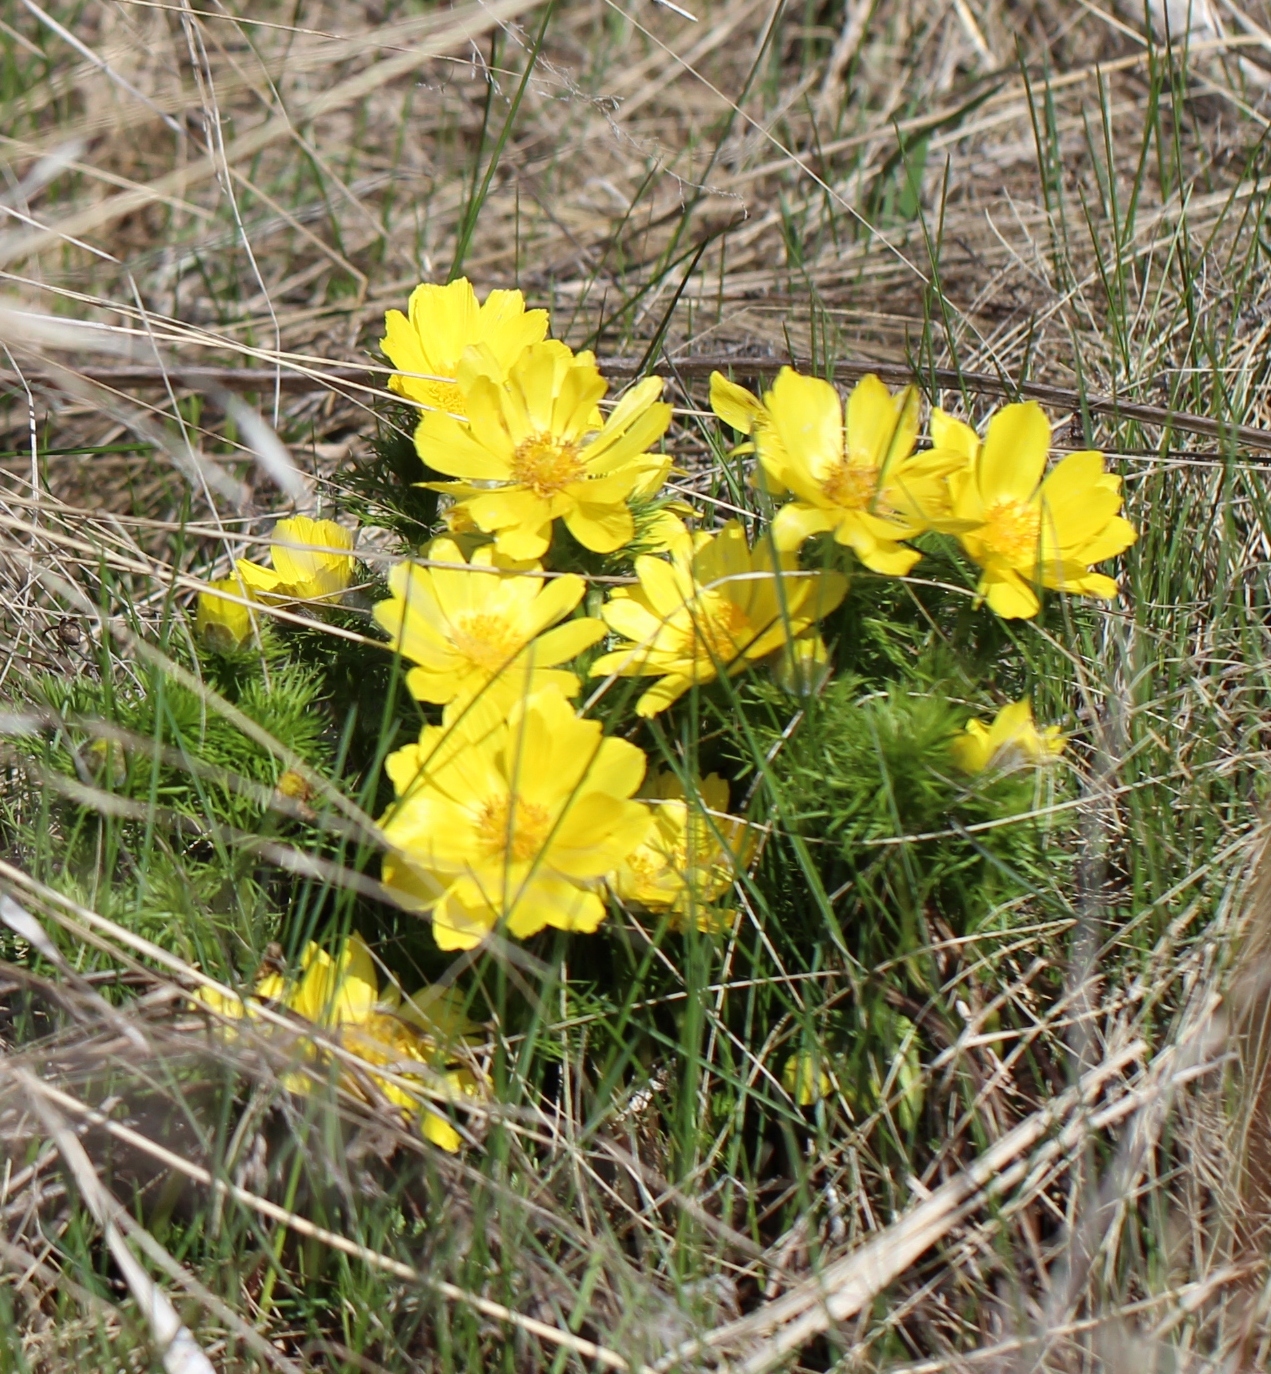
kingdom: Plantae
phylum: Tracheophyta
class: Magnoliopsida
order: Ranunculales
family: Ranunculaceae
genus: Adonis
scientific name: Adonis vernalis
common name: Yellow pheasants-eye
